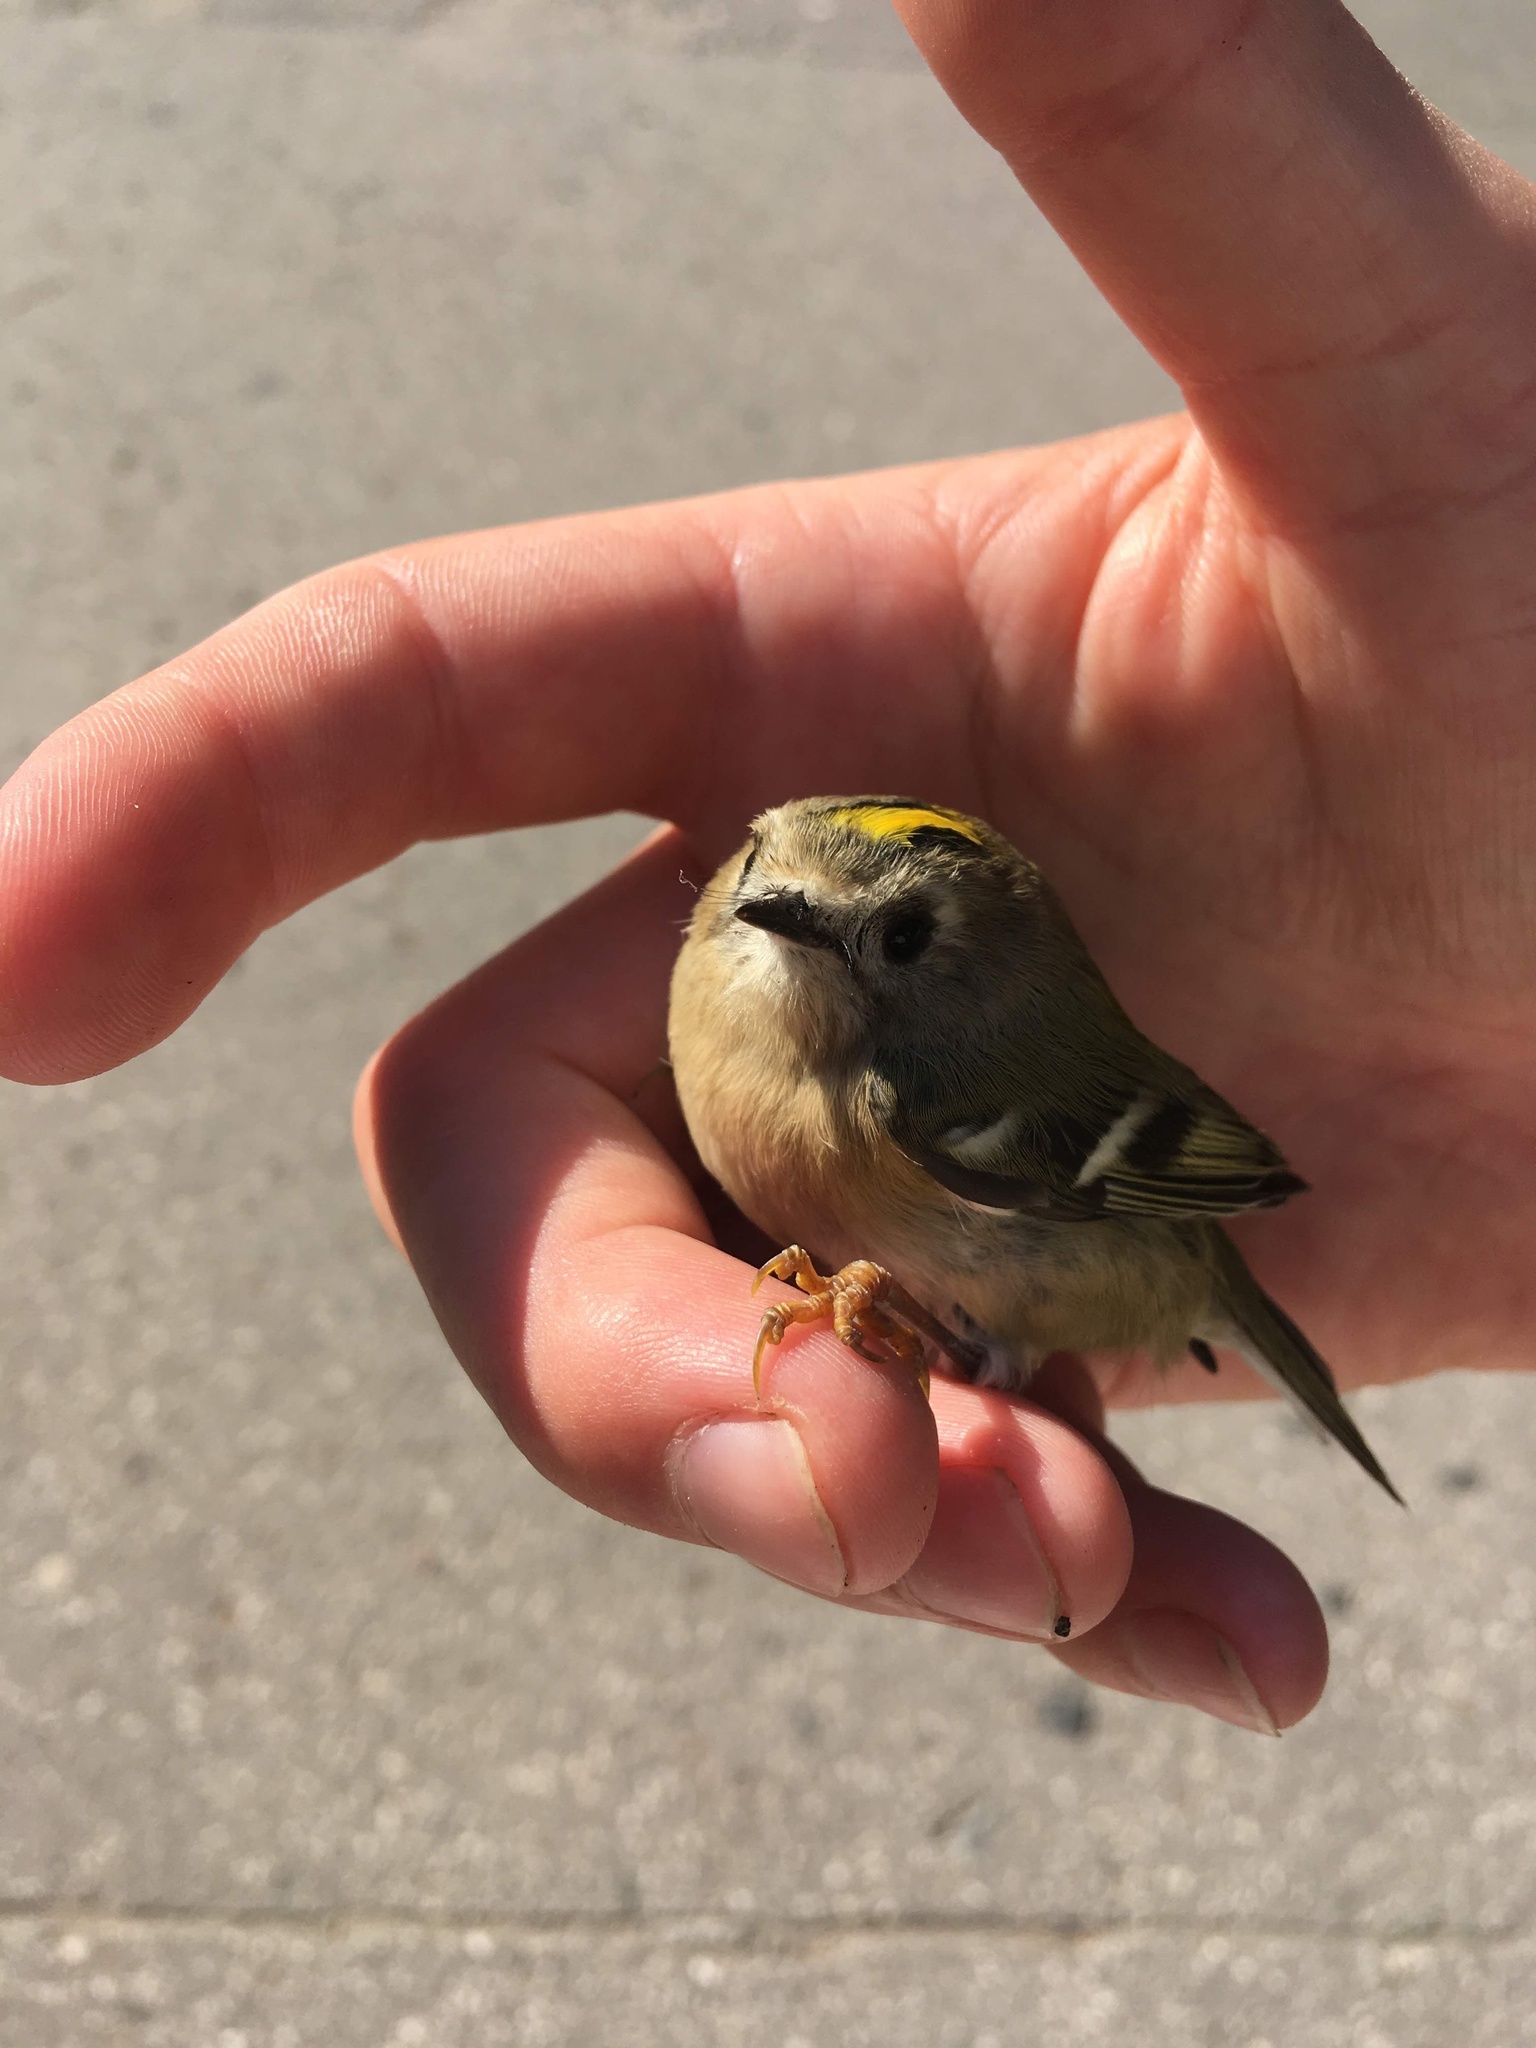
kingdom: Animalia
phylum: Chordata
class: Aves
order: Passeriformes
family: Regulidae
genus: Regulus
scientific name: Regulus regulus
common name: Goldcrest
